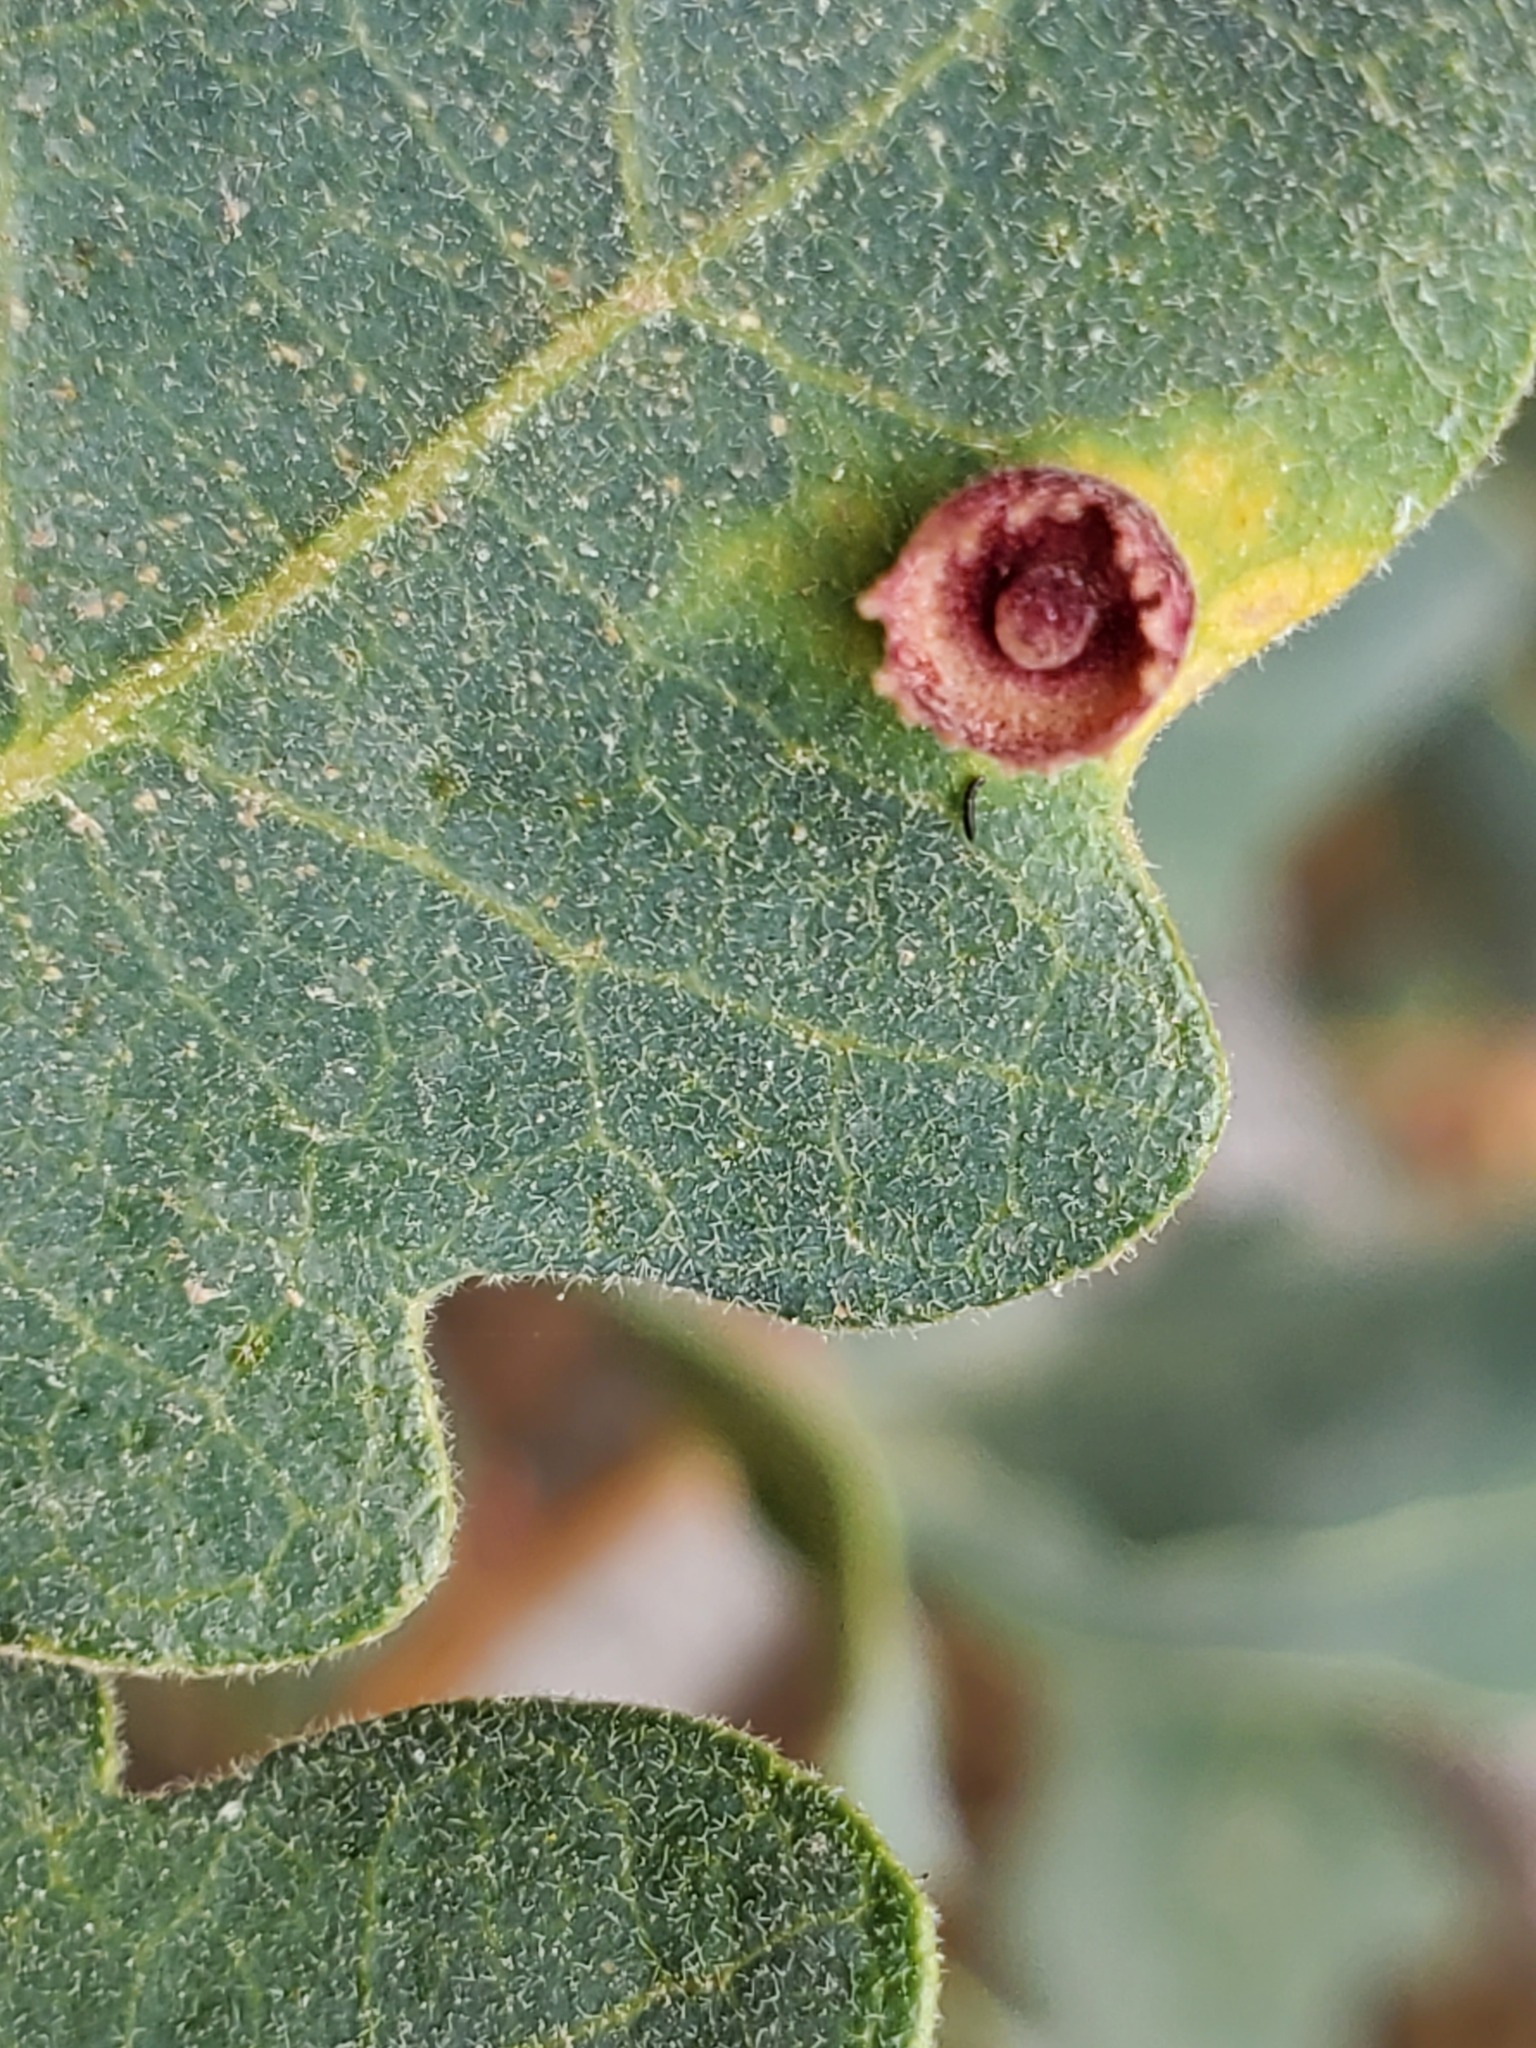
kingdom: Animalia
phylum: Arthropoda
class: Insecta
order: Hymenoptera
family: Cynipidae
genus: Andricus
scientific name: Andricus
